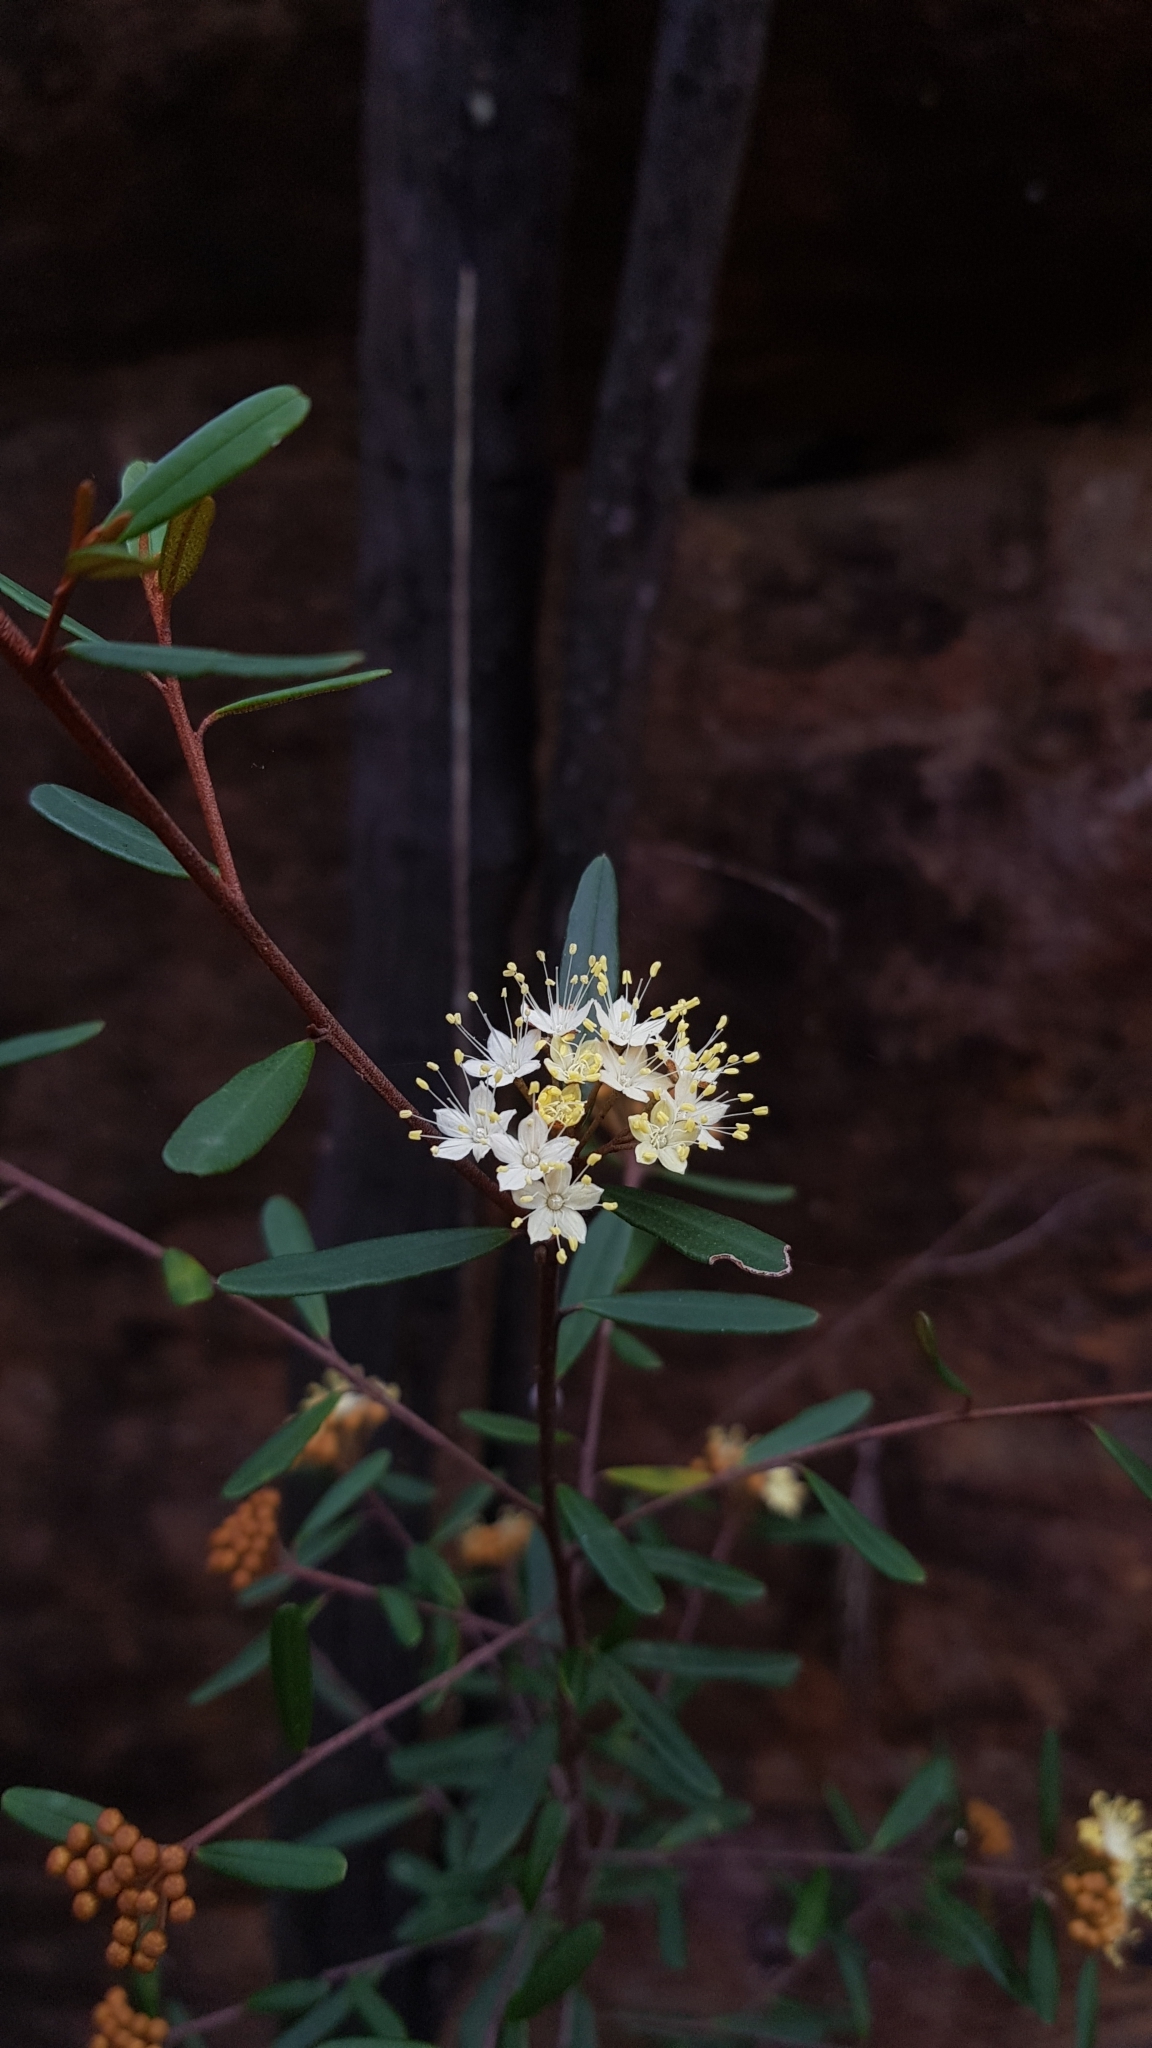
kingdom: Plantae
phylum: Tracheophyta
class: Magnoliopsida
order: Sapindales
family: Rutaceae
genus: Phebalium
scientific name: Phebalium squamulosum
